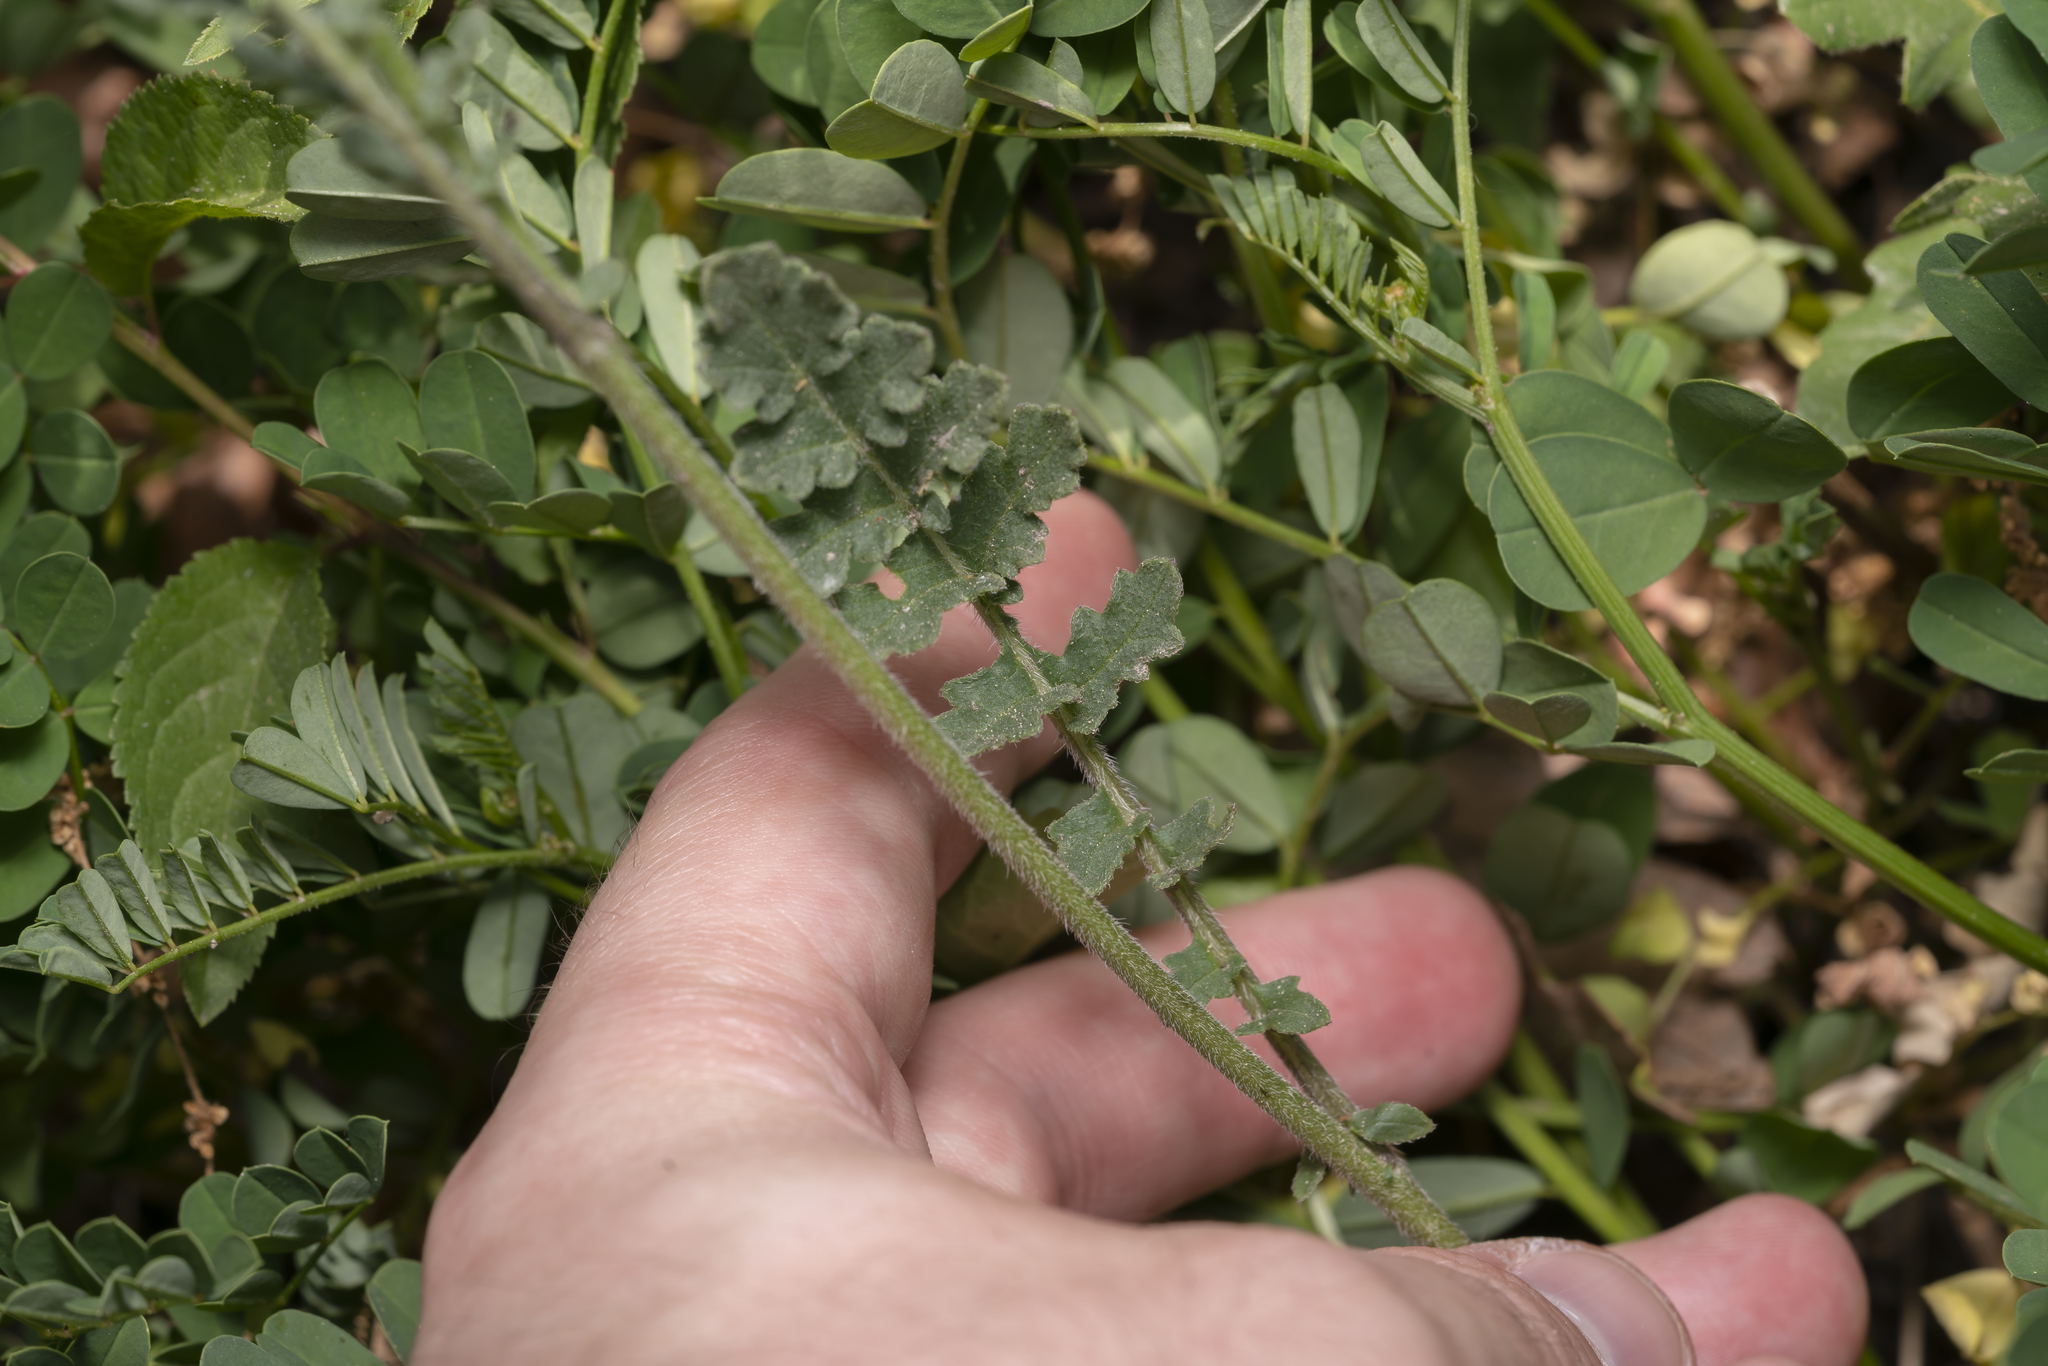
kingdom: Plantae
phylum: Tracheophyta
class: Magnoliopsida
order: Brassicales
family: Brassicaceae
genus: Erucastrum
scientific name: Erucastrum nasturtiifolium
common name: Watercress-leaf rocket
